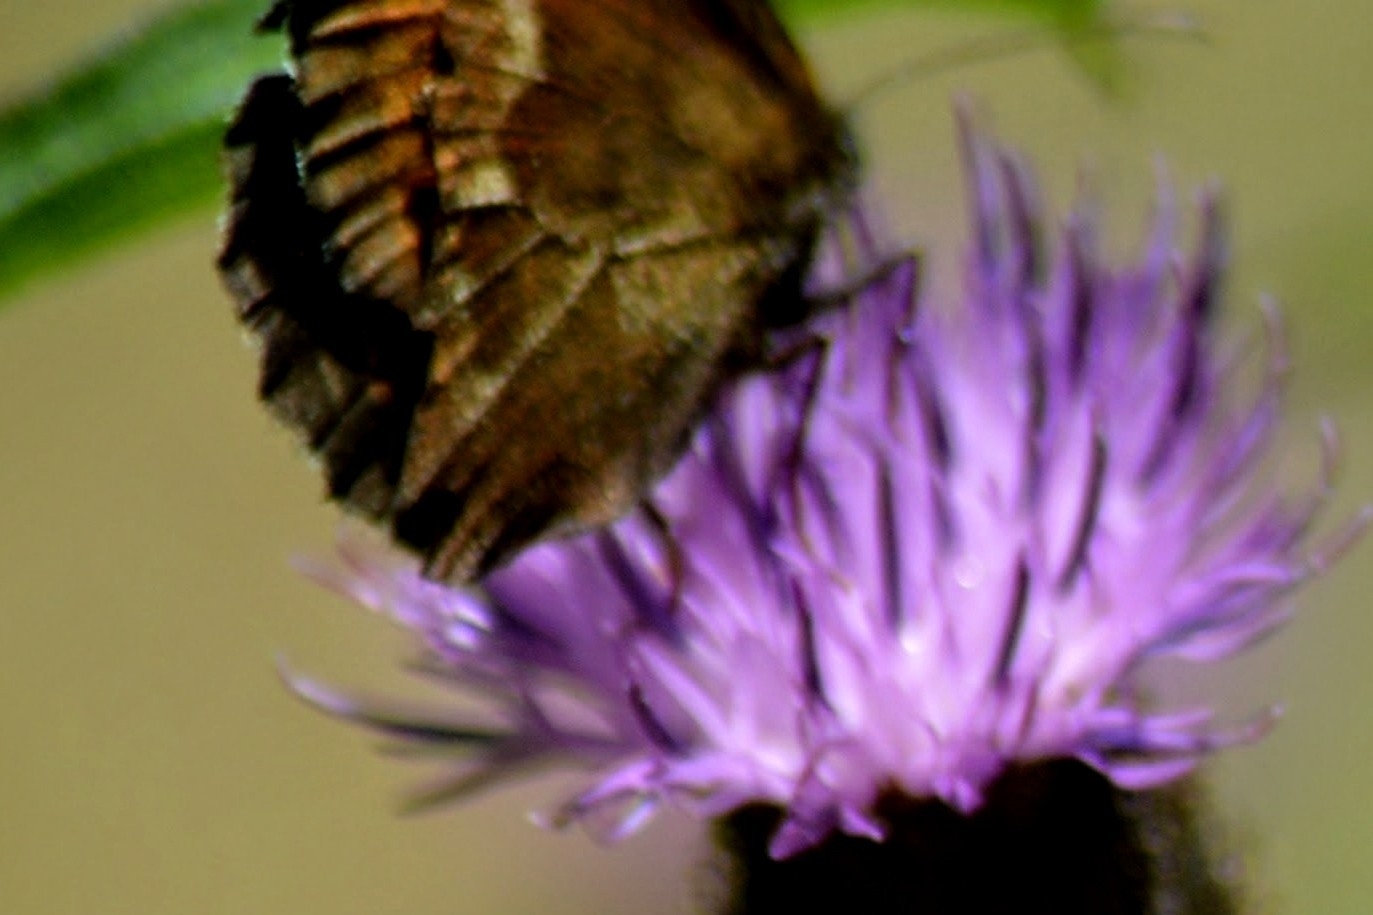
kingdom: Animalia
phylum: Arthropoda
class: Insecta
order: Lepidoptera
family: Nymphalidae
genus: Erebia
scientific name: Erebia euryale
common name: Large ringlet
